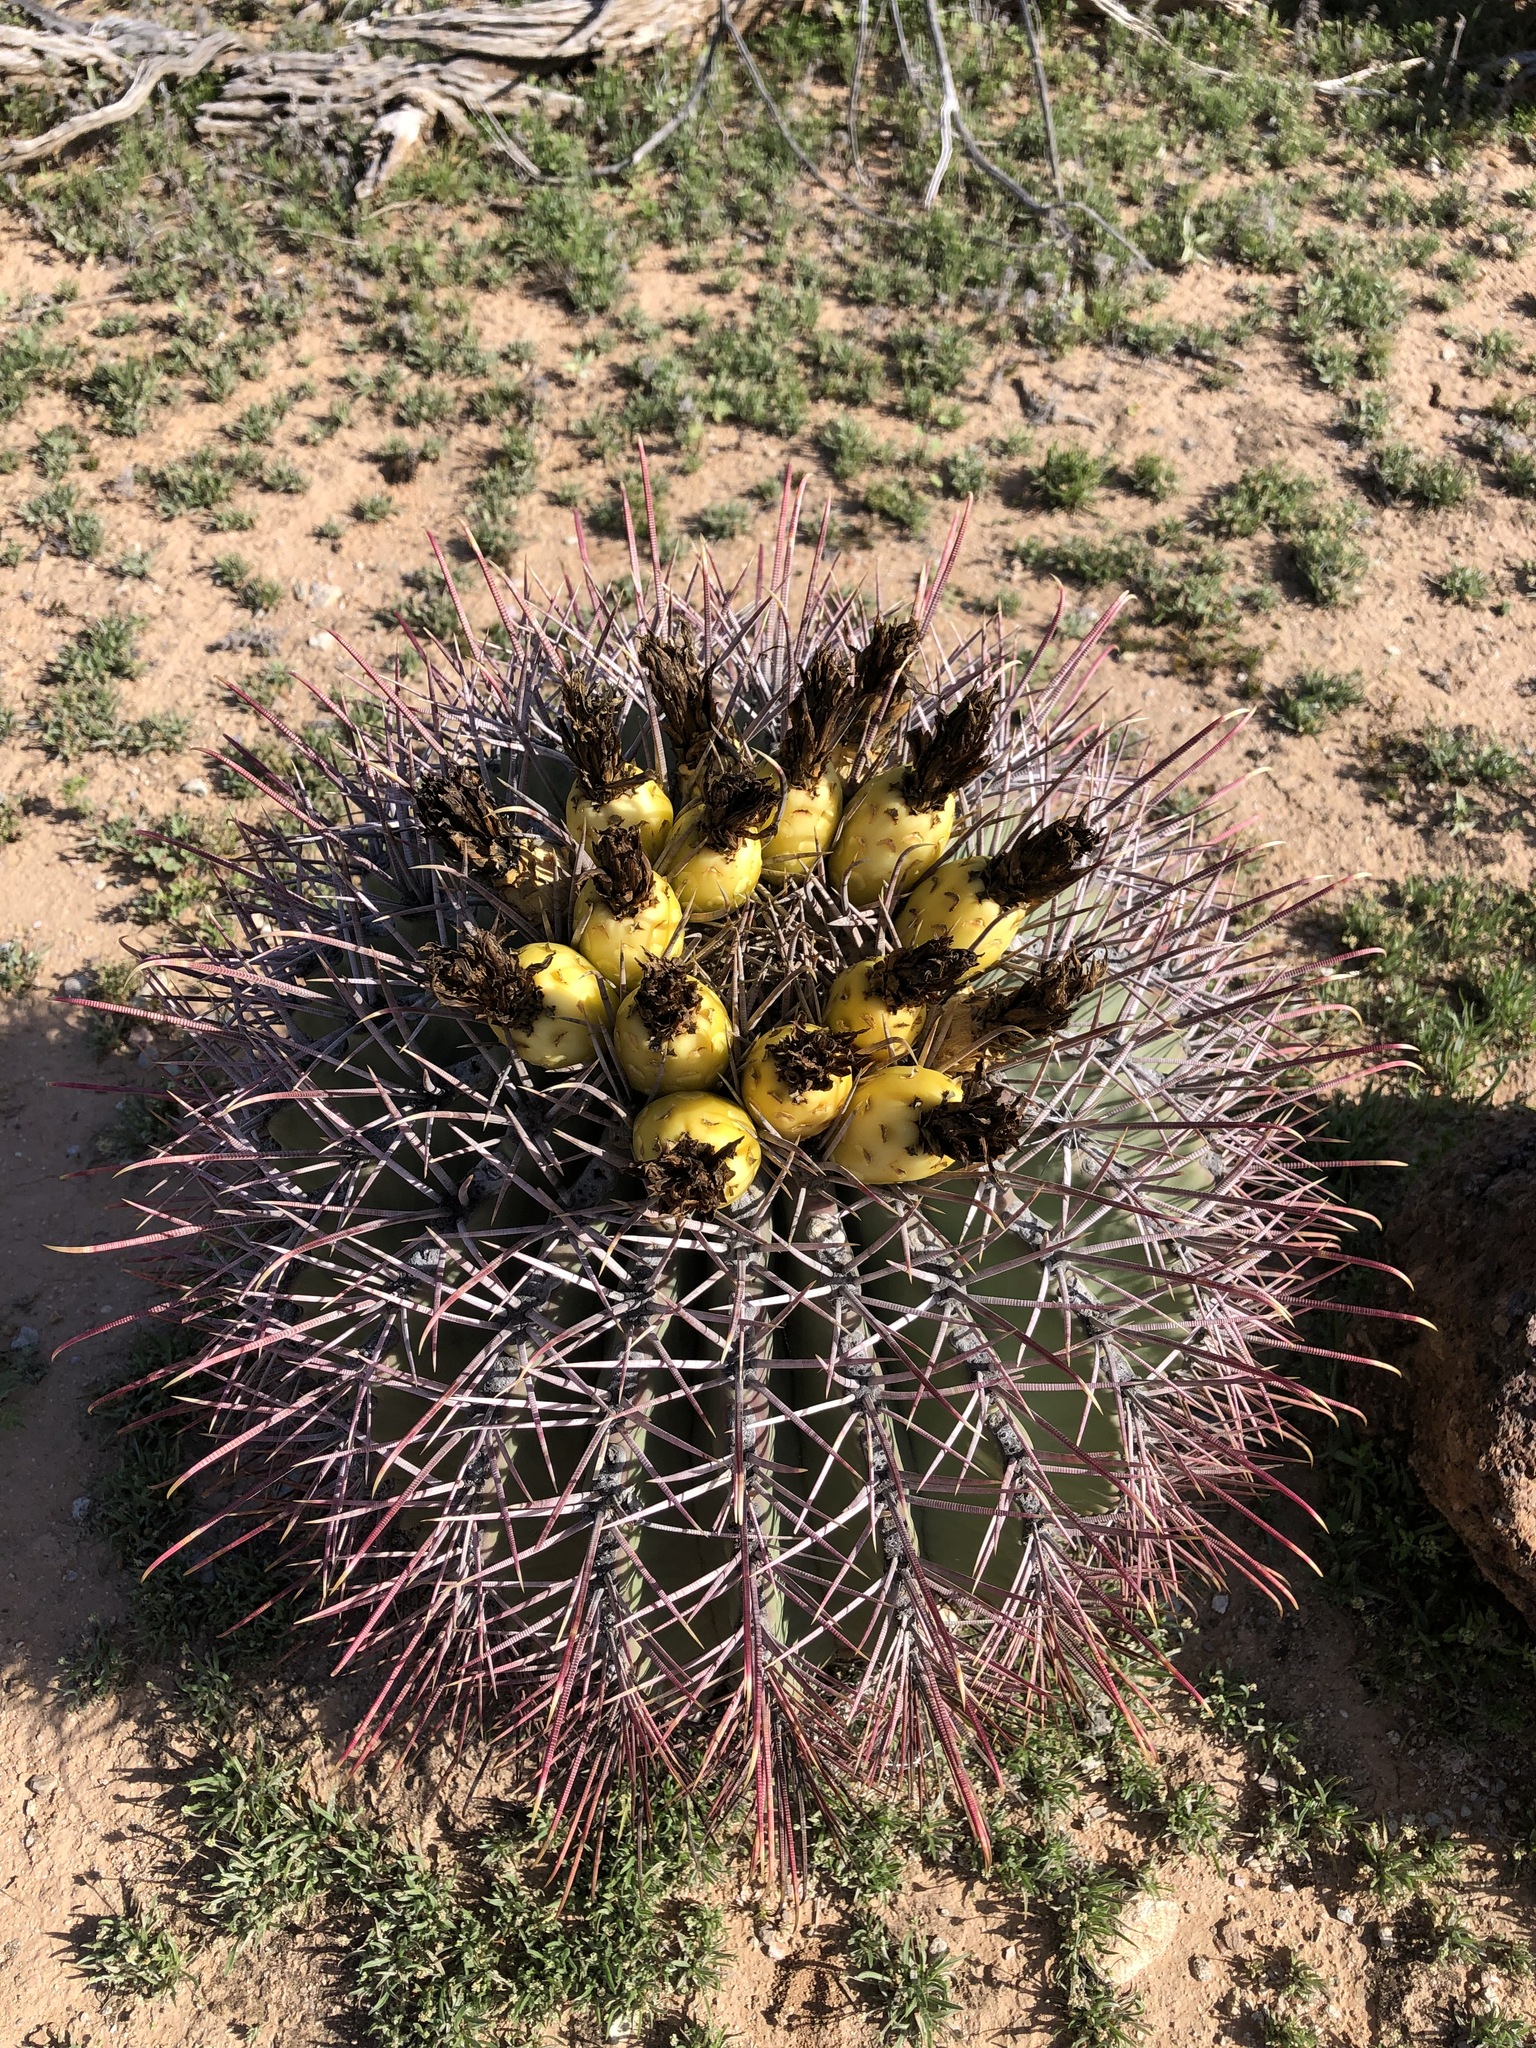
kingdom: Plantae
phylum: Tracheophyta
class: Magnoliopsida
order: Caryophyllales
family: Cactaceae
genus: Ferocactus
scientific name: Ferocactus emoryi
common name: Emory's barrel cactus
